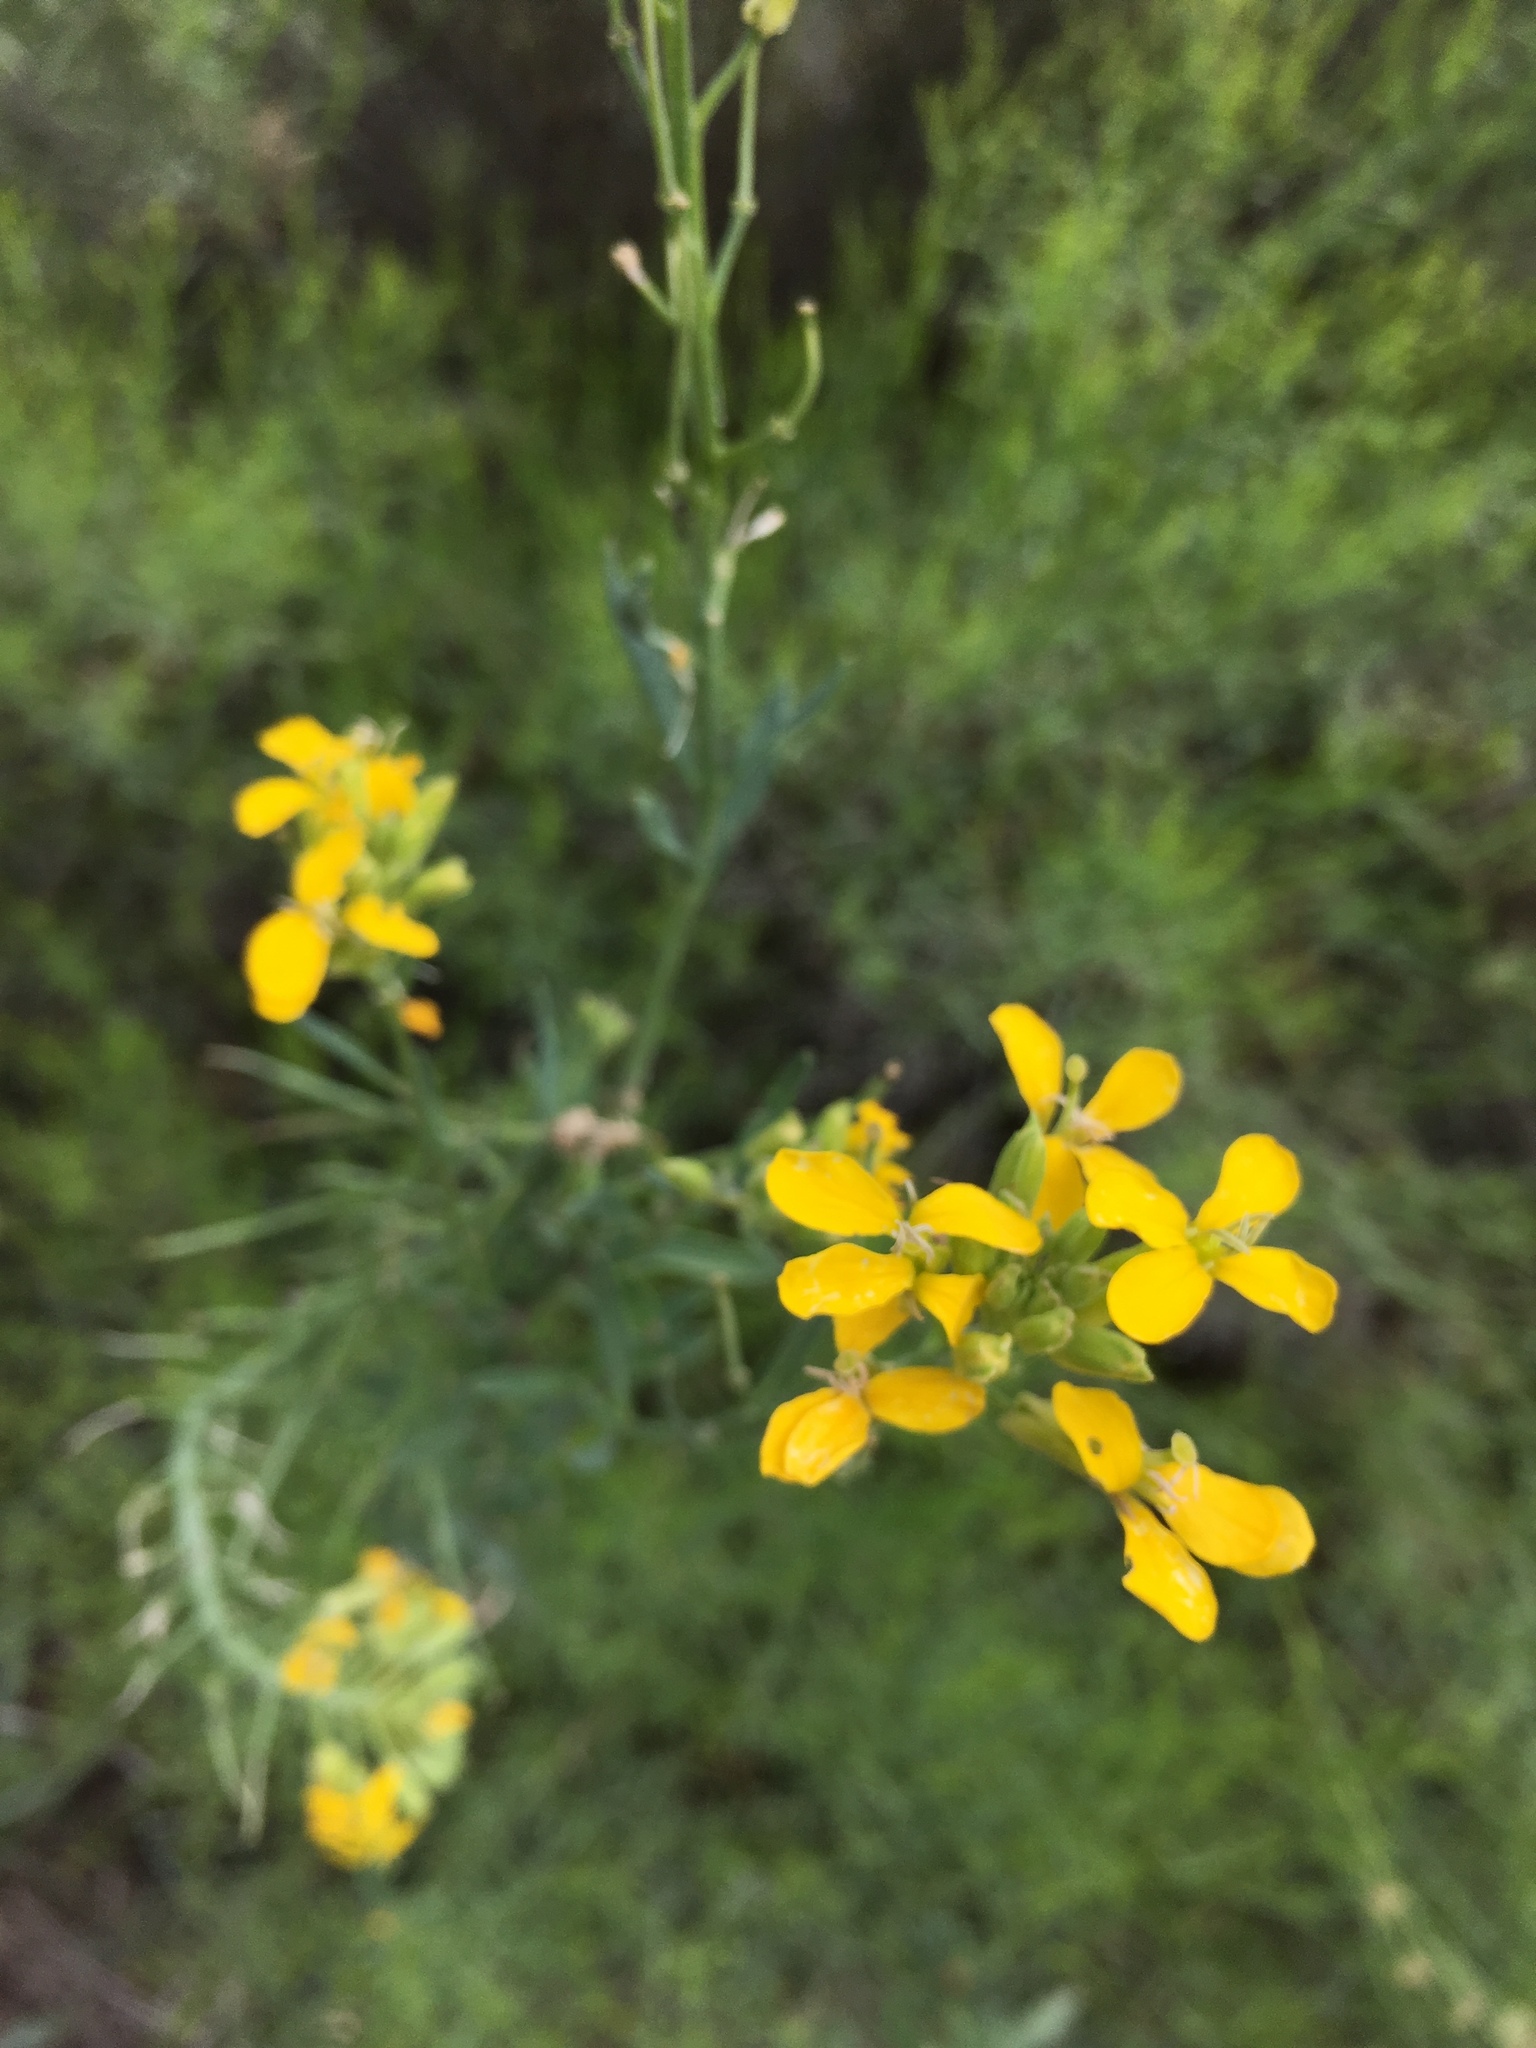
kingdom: Plantae
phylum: Tracheophyta
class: Magnoliopsida
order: Brassicales
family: Brassicaceae
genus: Erysimum
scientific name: Erysimum capitatum
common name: Western wallflower
